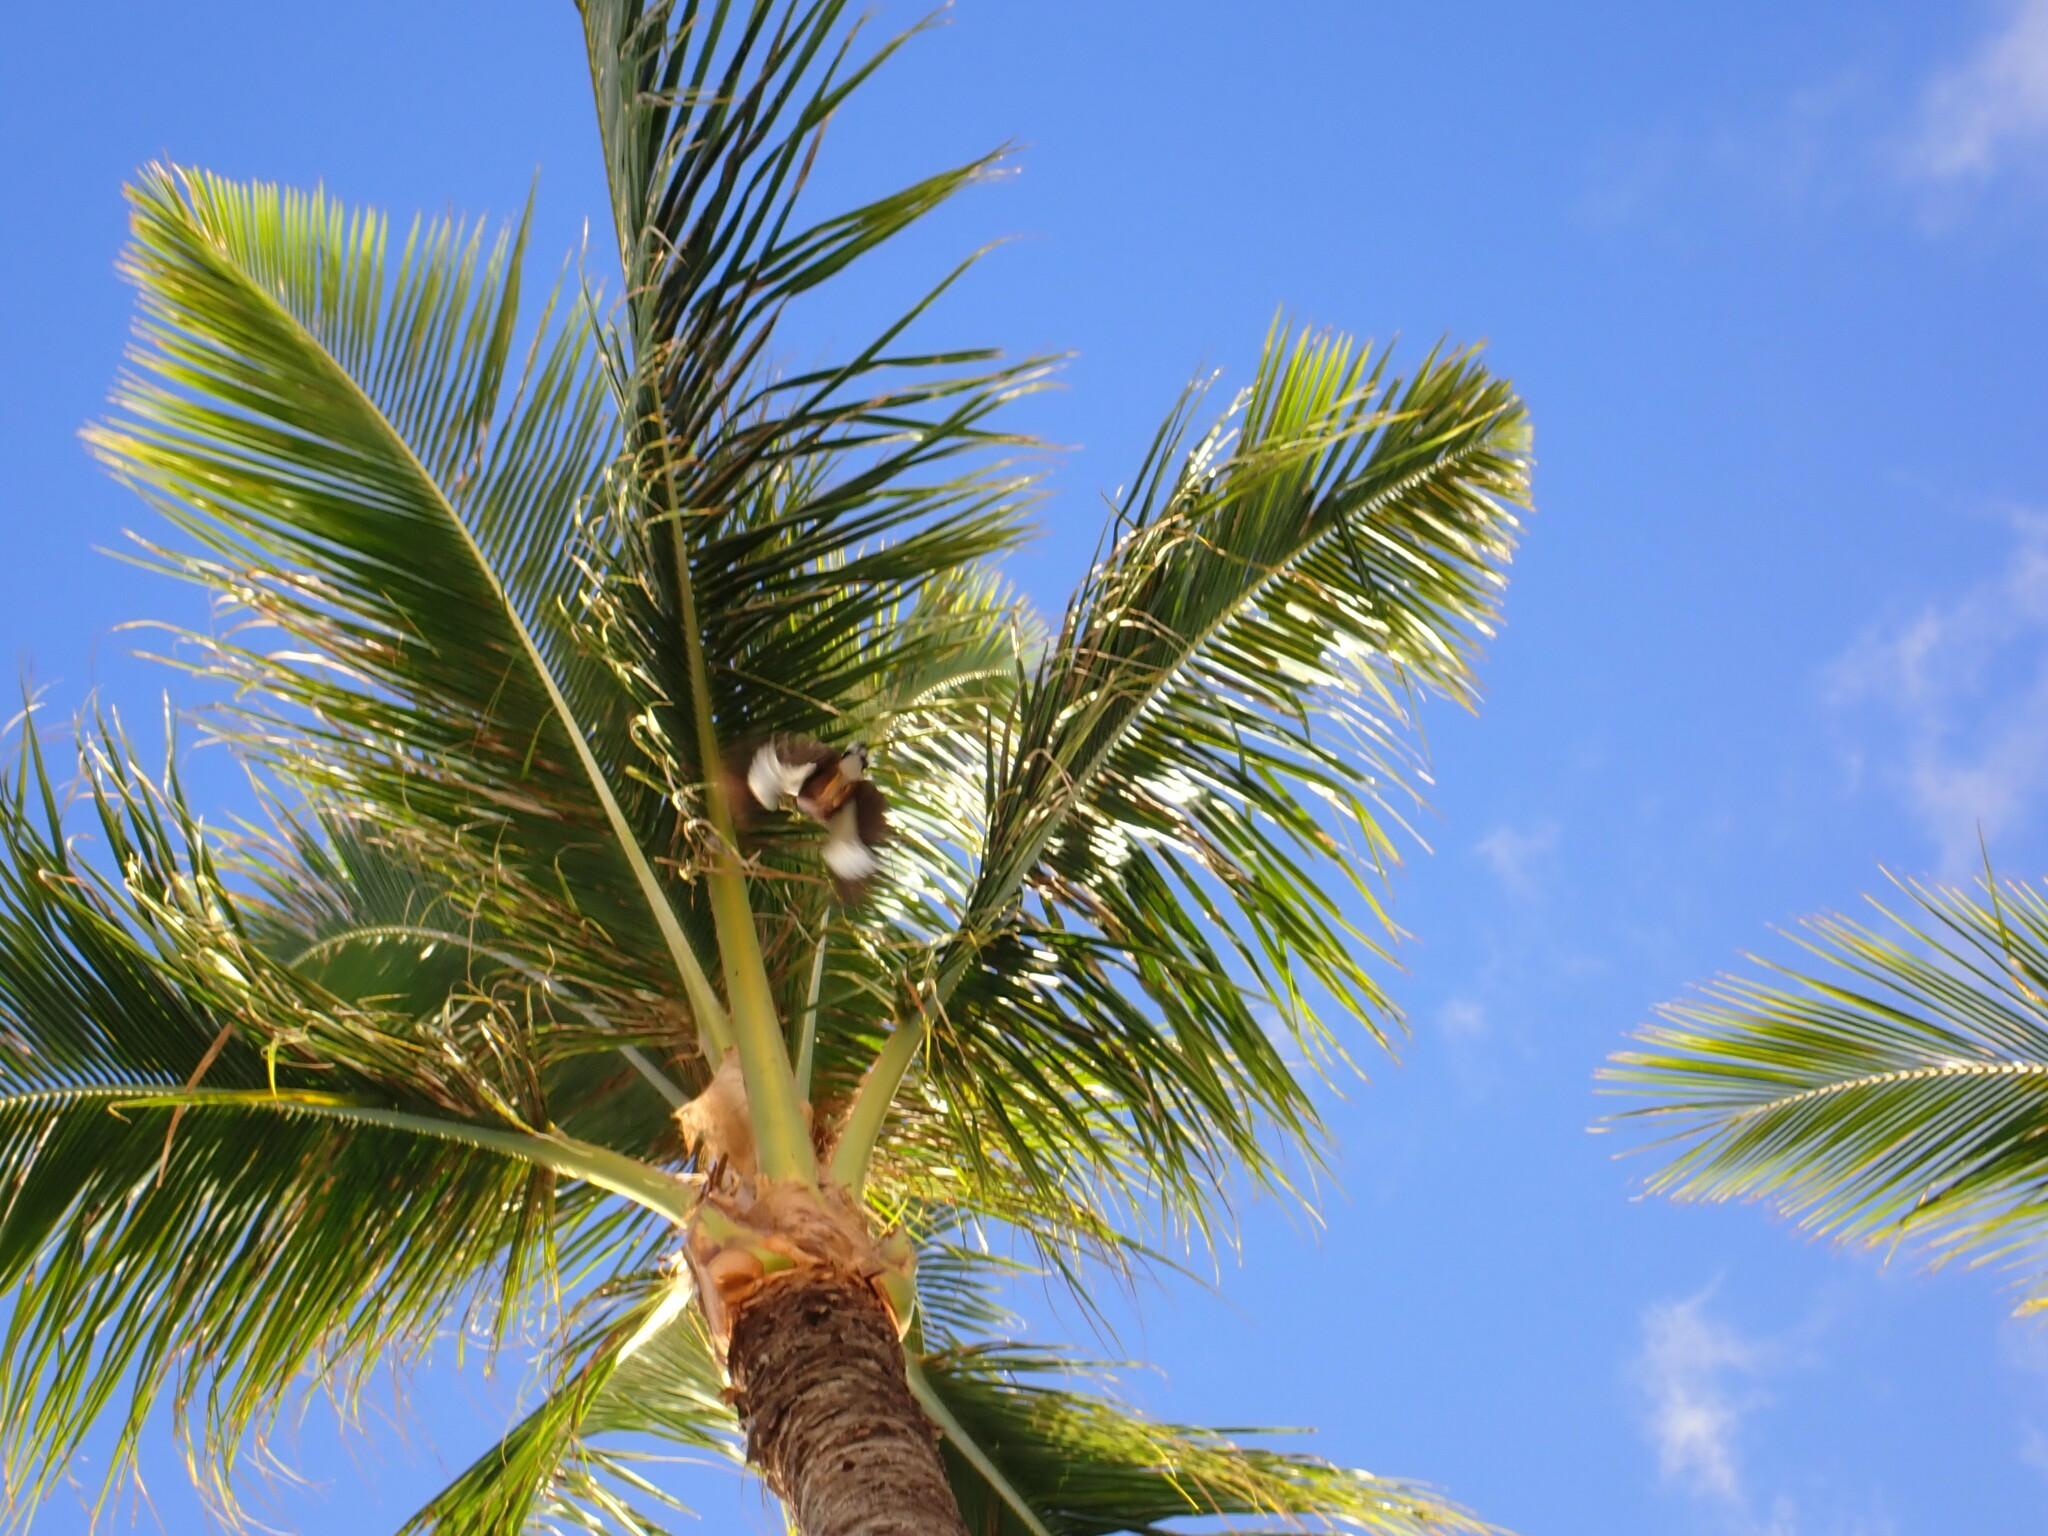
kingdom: Animalia
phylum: Chordata
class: Aves
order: Passeriformes
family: Sturnidae
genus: Acridotheres
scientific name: Acridotheres tristis
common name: Common myna
